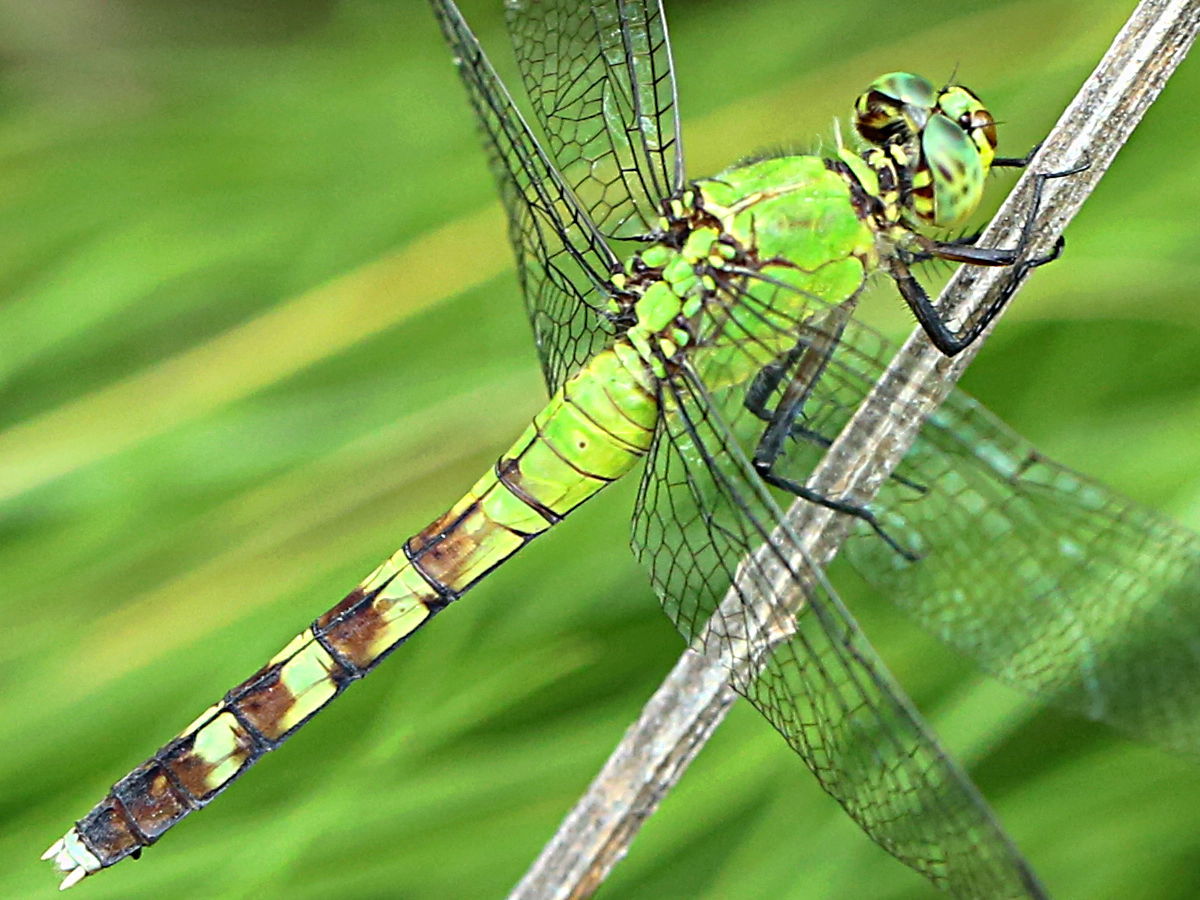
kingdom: Animalia
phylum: Arthropoda
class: Insecta
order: Odonata
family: Libellulidae
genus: Erythemis
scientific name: Erythemis simplicicollis
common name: Eastern pondhawk
